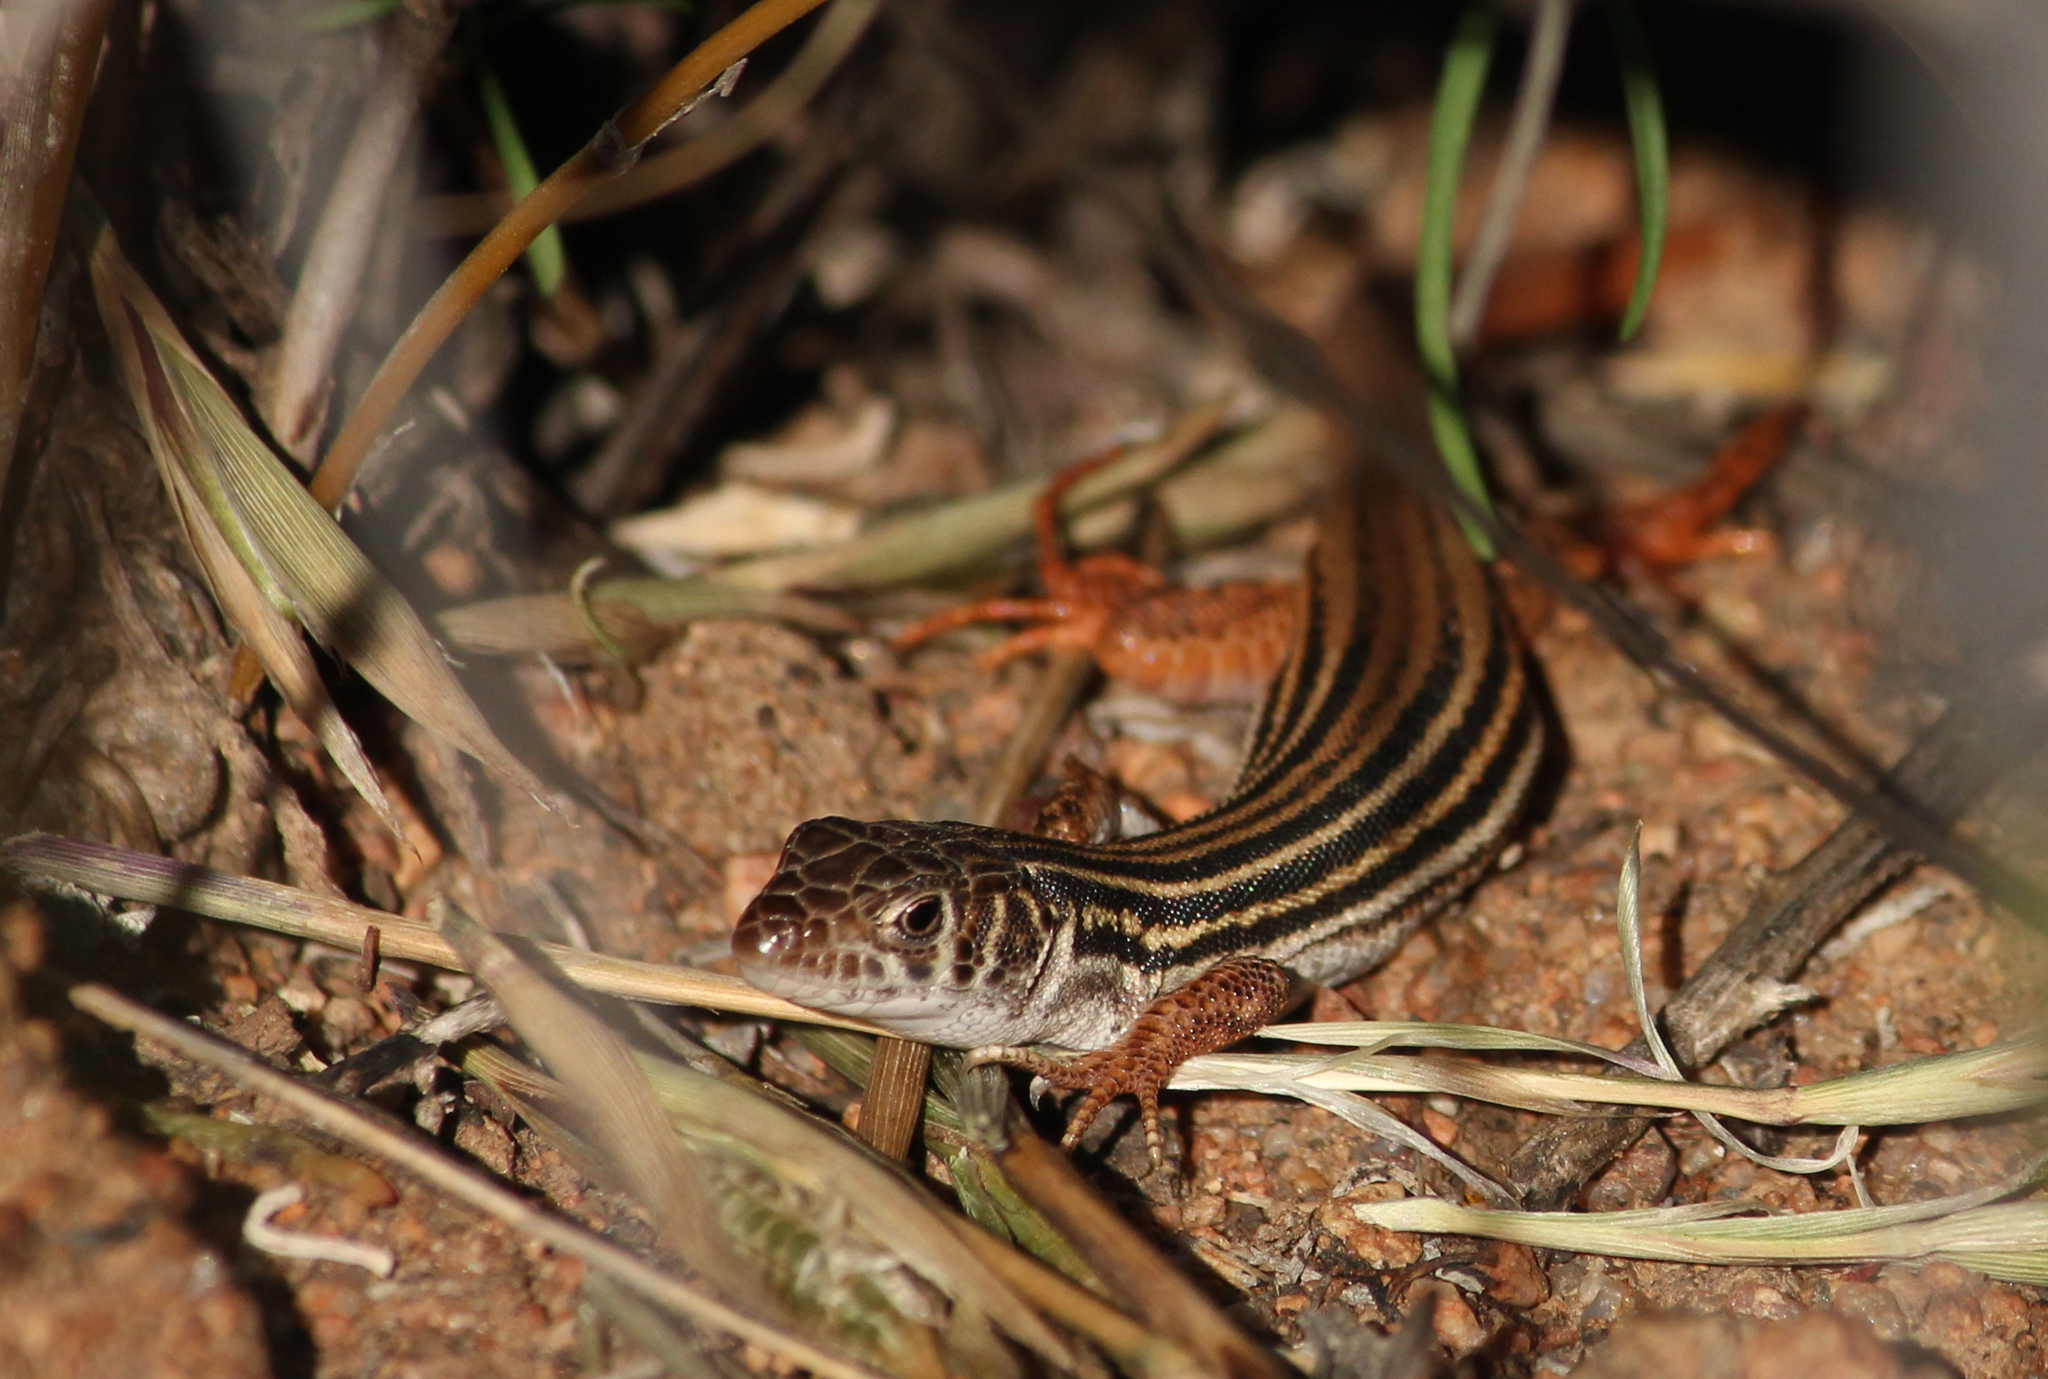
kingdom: Animalia
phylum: Chordata
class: Squamata
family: Lacertidae
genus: Nucras
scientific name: Nucras tessellata
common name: Western sandveld lizard
